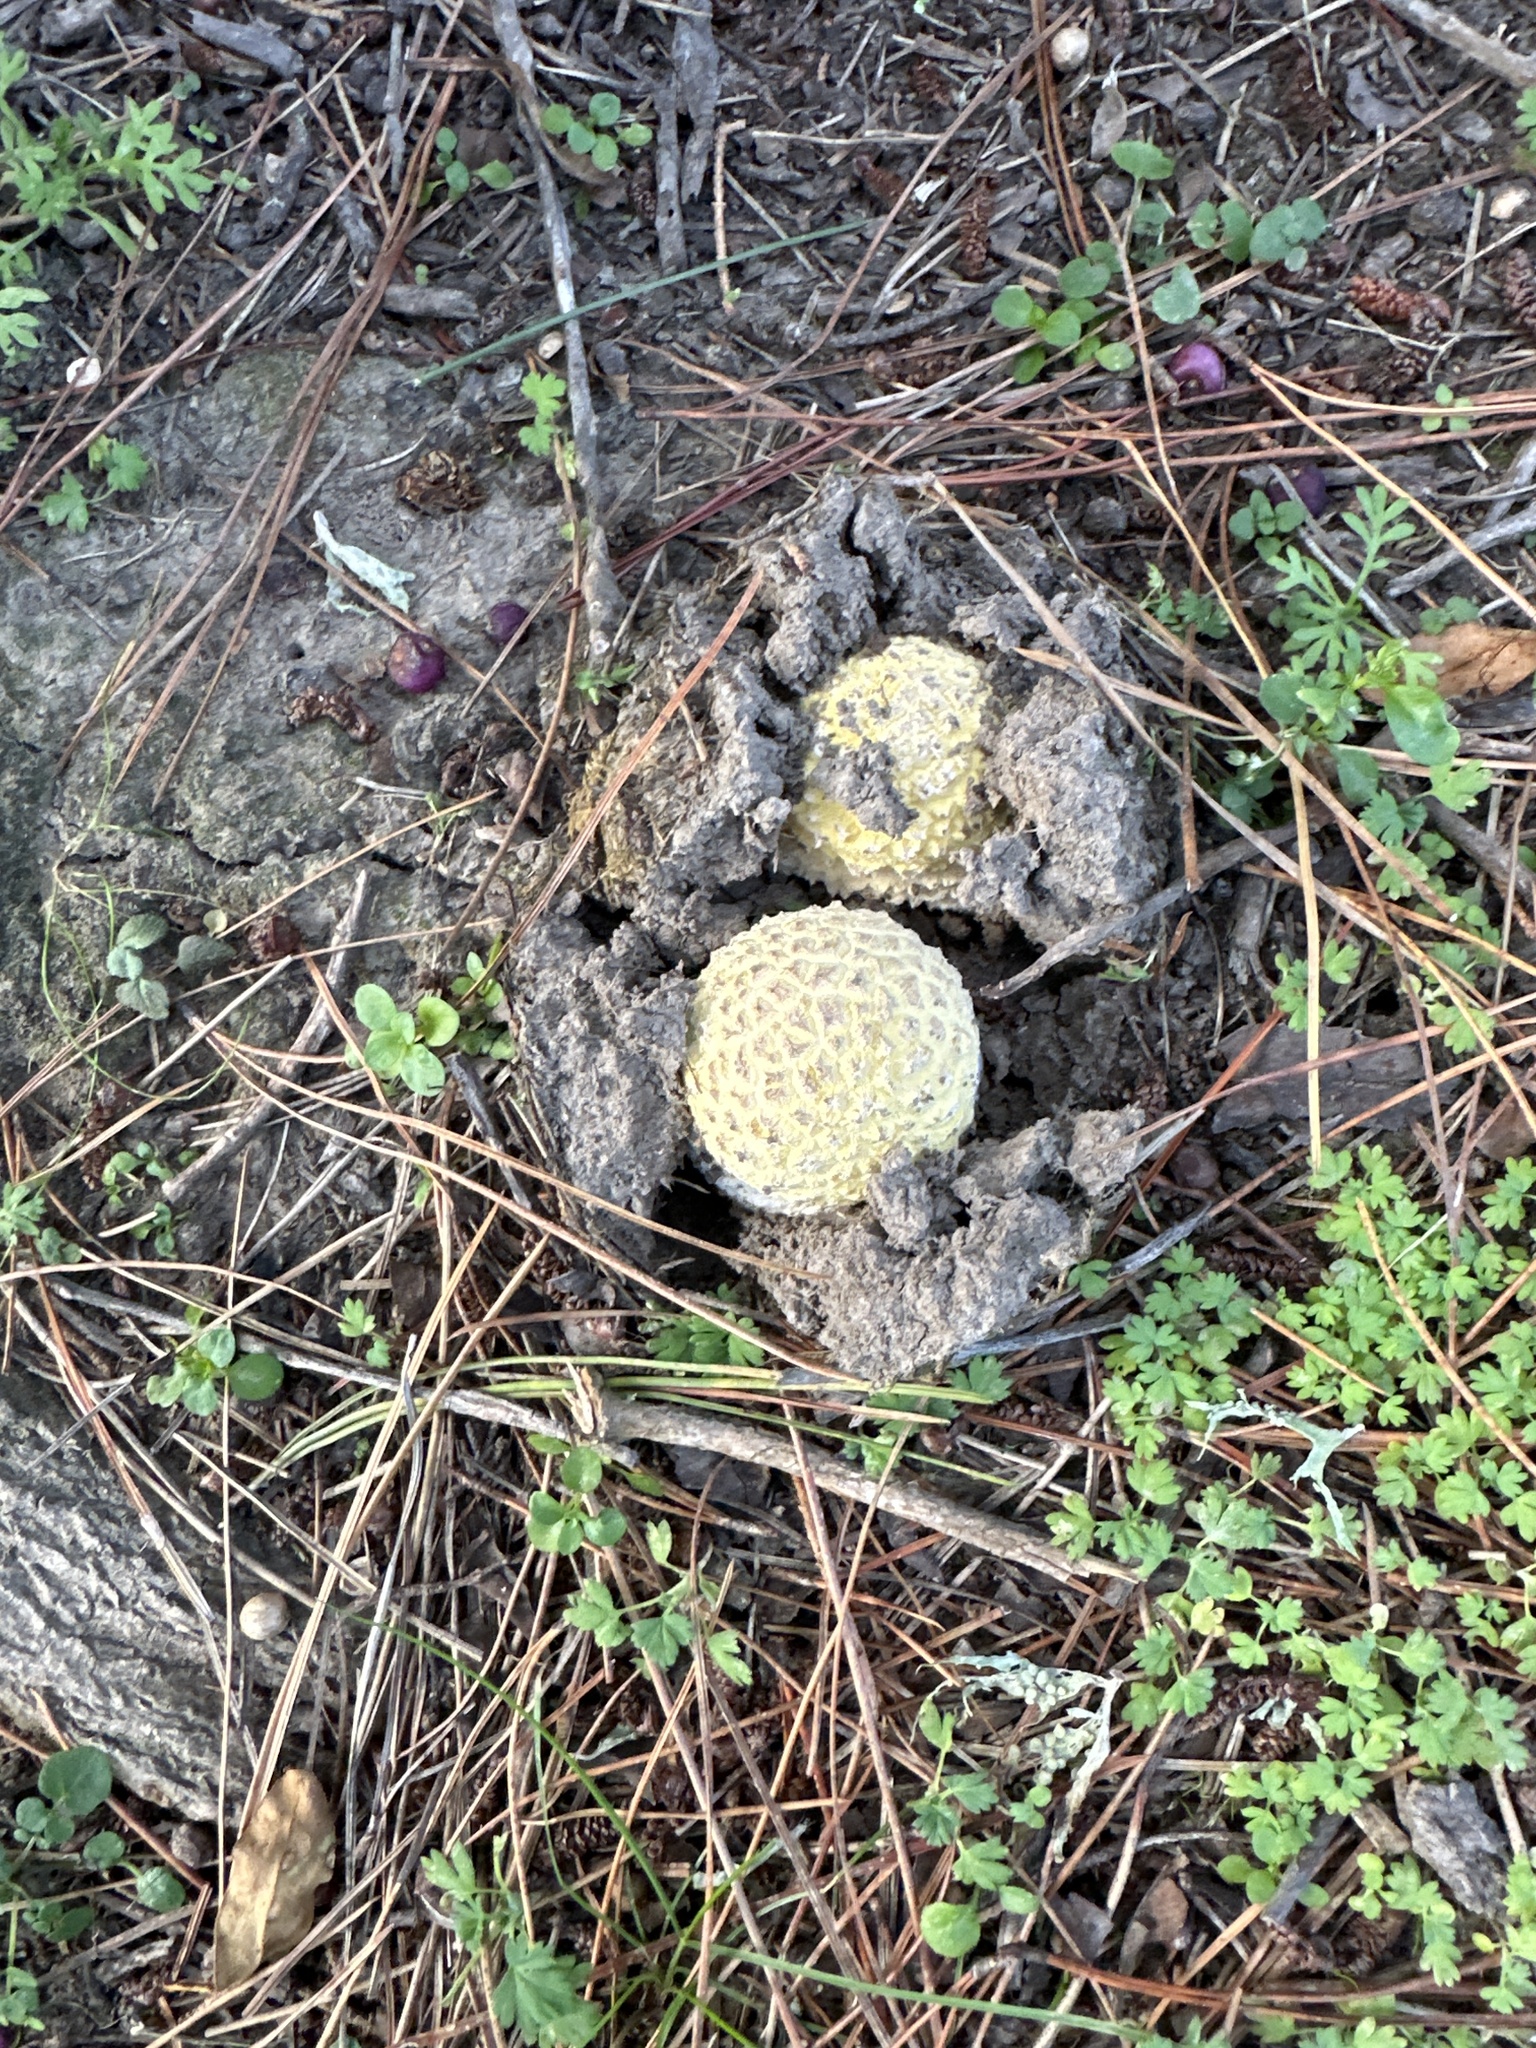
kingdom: Fungi
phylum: Basidiomycota
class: Agaricomycetes
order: Agaricales
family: Amanitaceae
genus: Amanita
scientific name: Amanita muscaria
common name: Fly agaric
